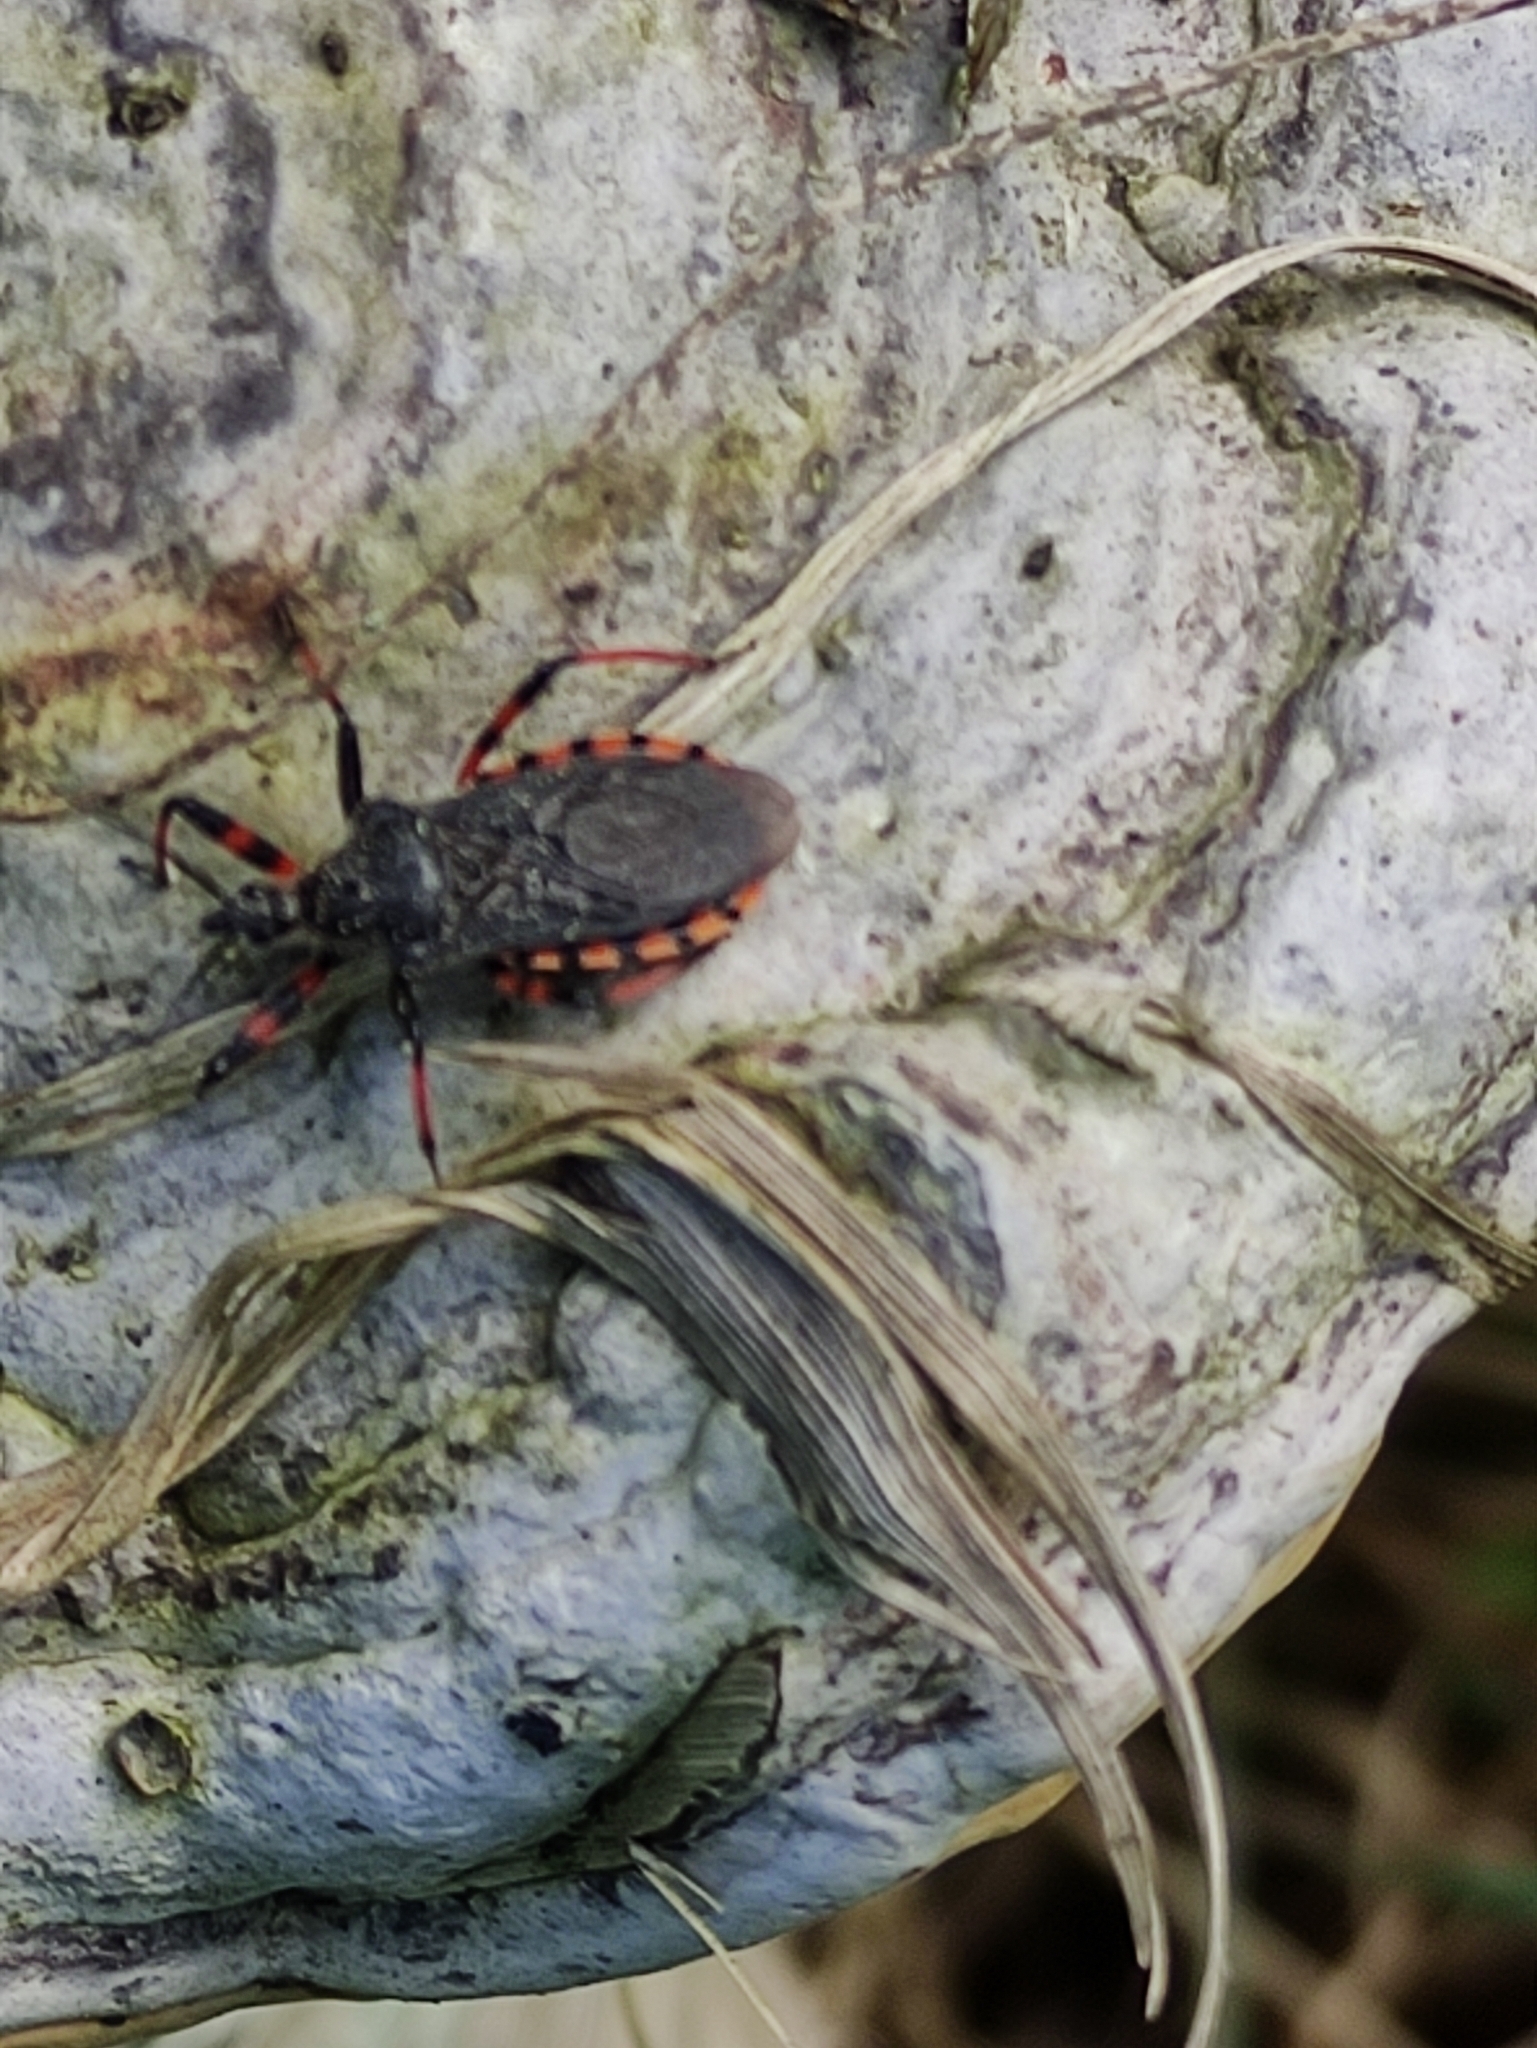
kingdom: Animalia
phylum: Arthropoda
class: Insecta
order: Hemiptera
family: Reduviidae
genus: Rhynocoris
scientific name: Rhynocoris annulatus
